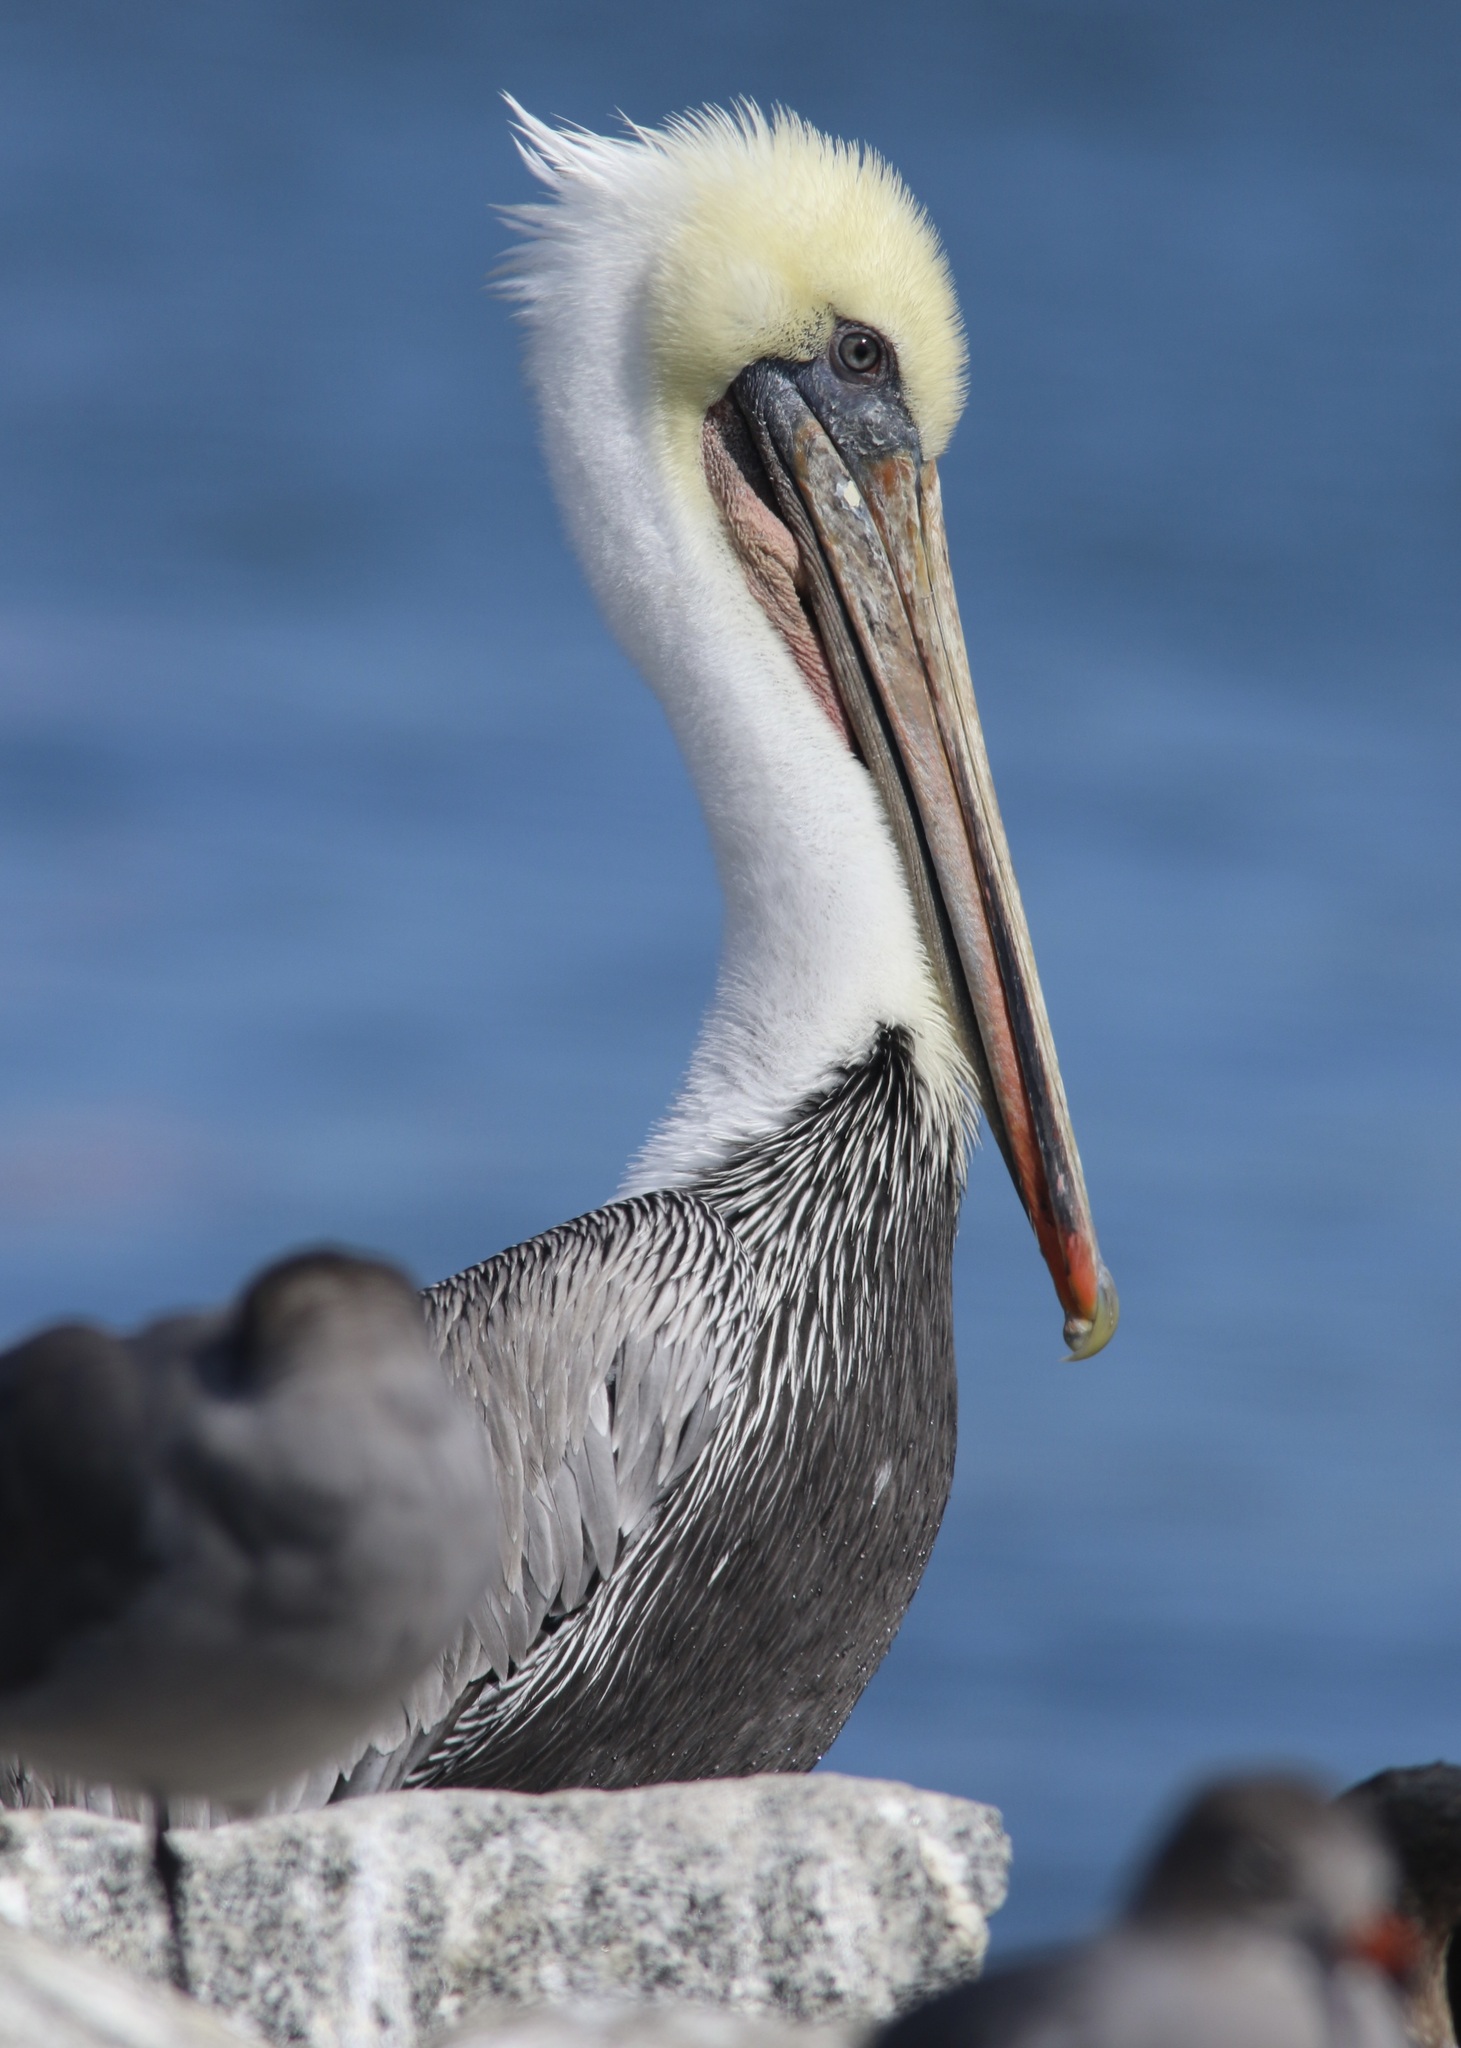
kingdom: Animalia
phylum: Chordata
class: Aves
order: Pelecaniformes
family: Pelecanidae
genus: Pelecanus
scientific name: Pelecanus occidentalis
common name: Brown pelican
